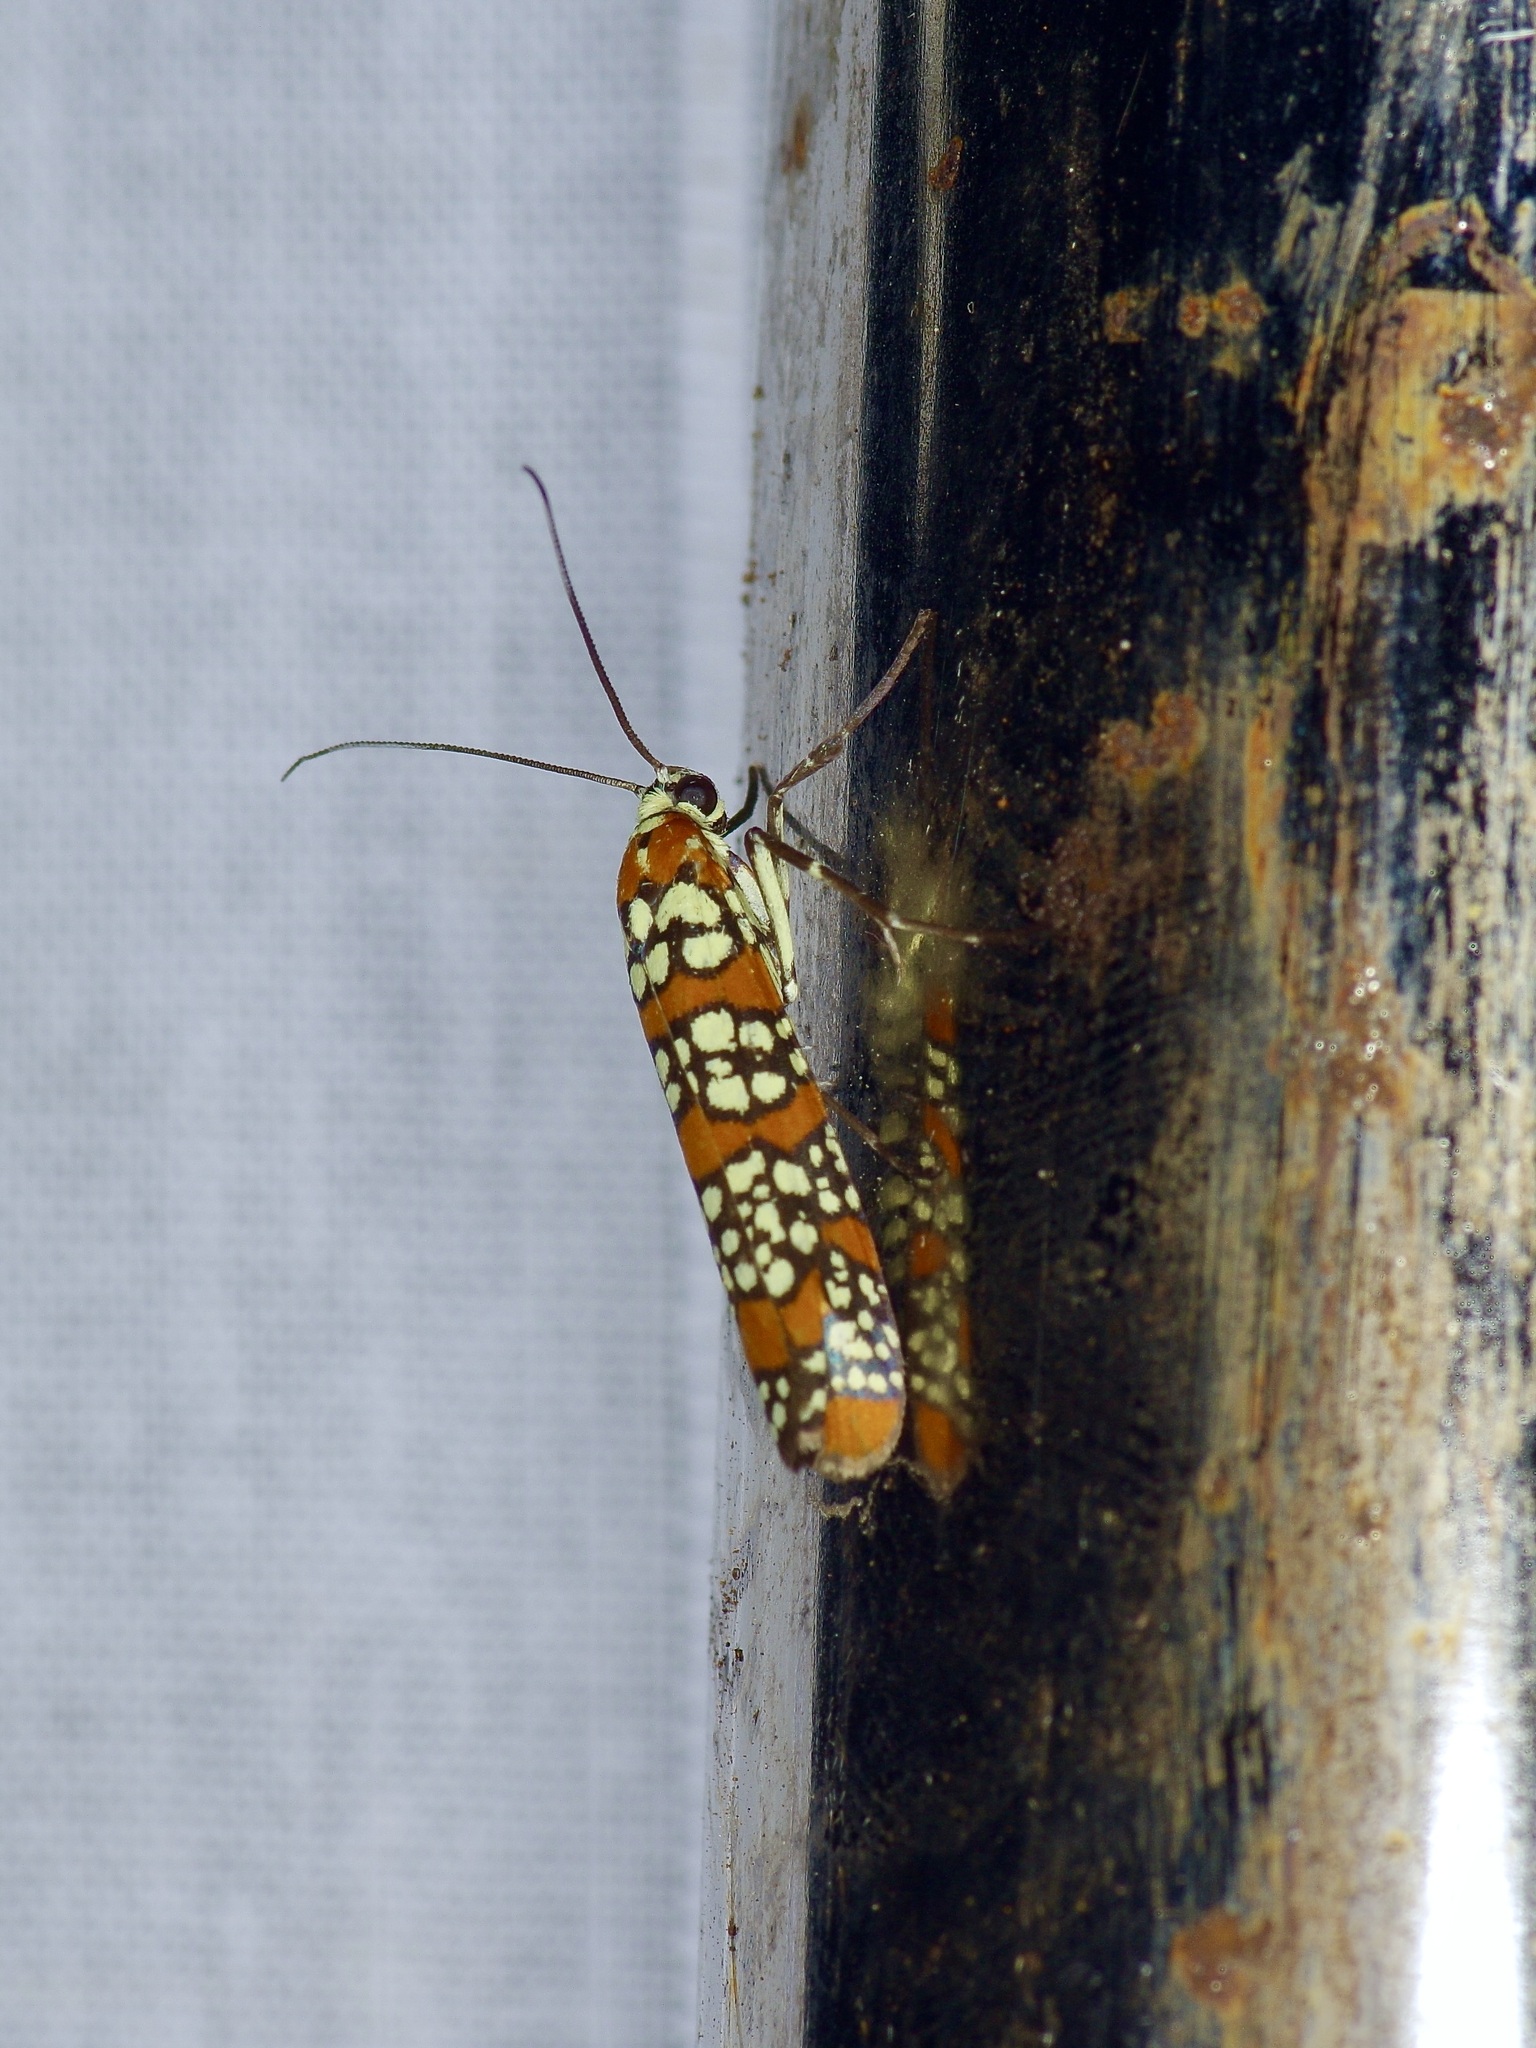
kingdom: Animalia
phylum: Arthropoda
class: Insecta
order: Lepidoptera
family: Attevidae
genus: Atteva
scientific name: Atteva punctella
